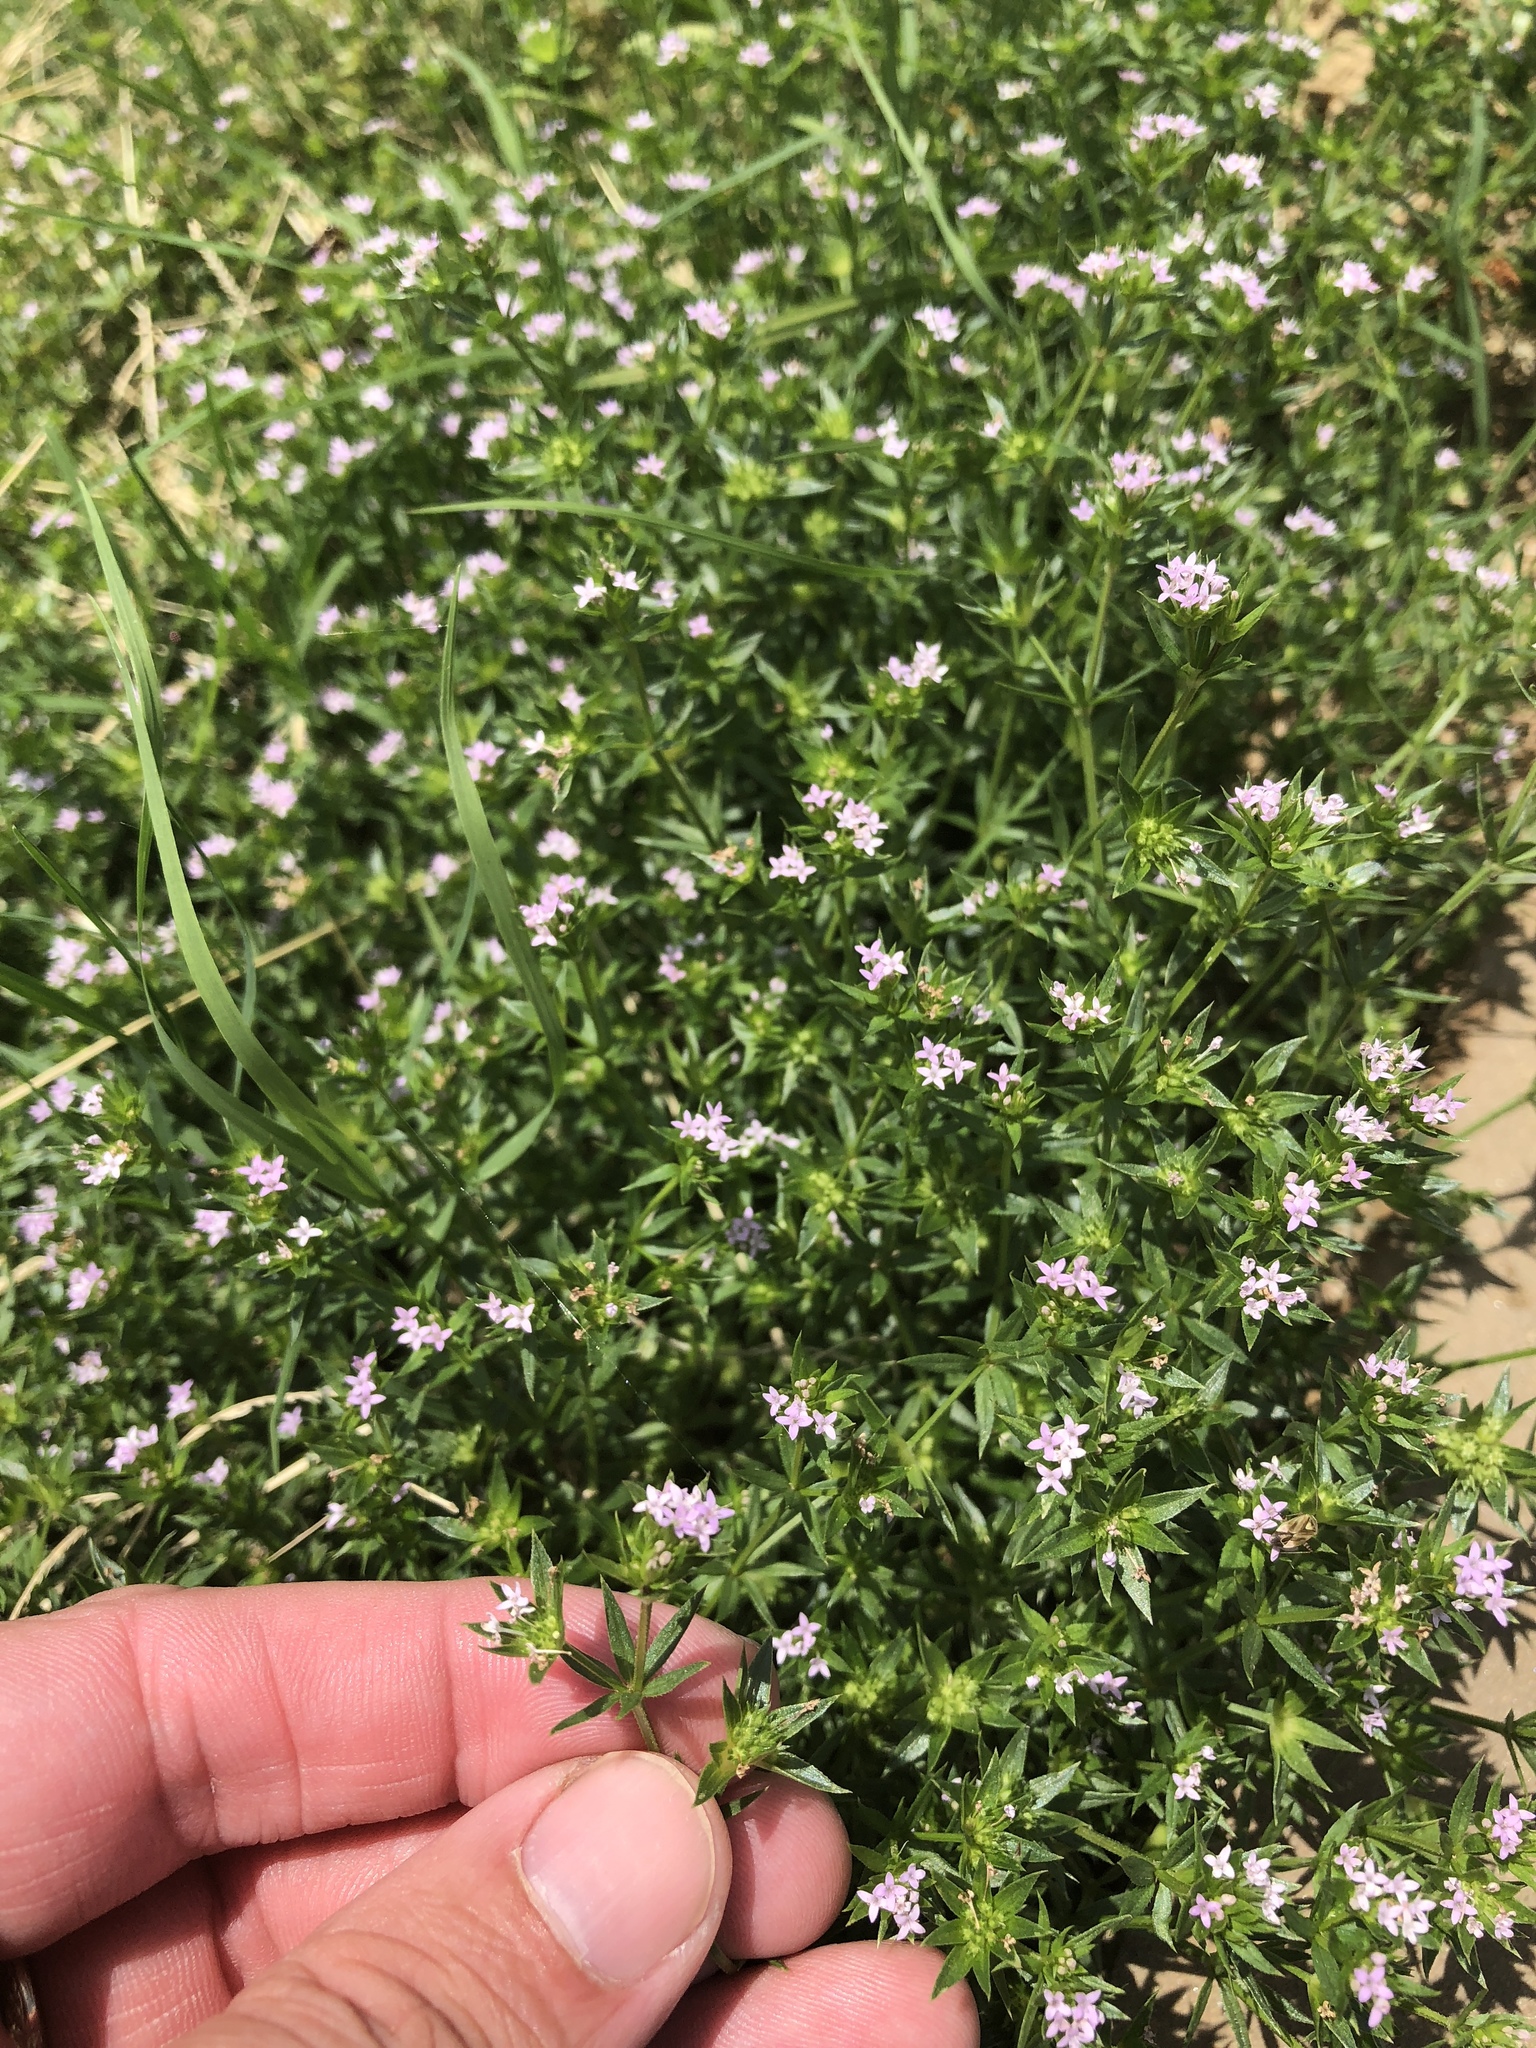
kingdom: Plantae
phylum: Tracheophyta
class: Magnoliopsida
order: Gentianales
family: Rubiaceae
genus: Sherardia
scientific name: Sherardia arvensis
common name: Field madder
